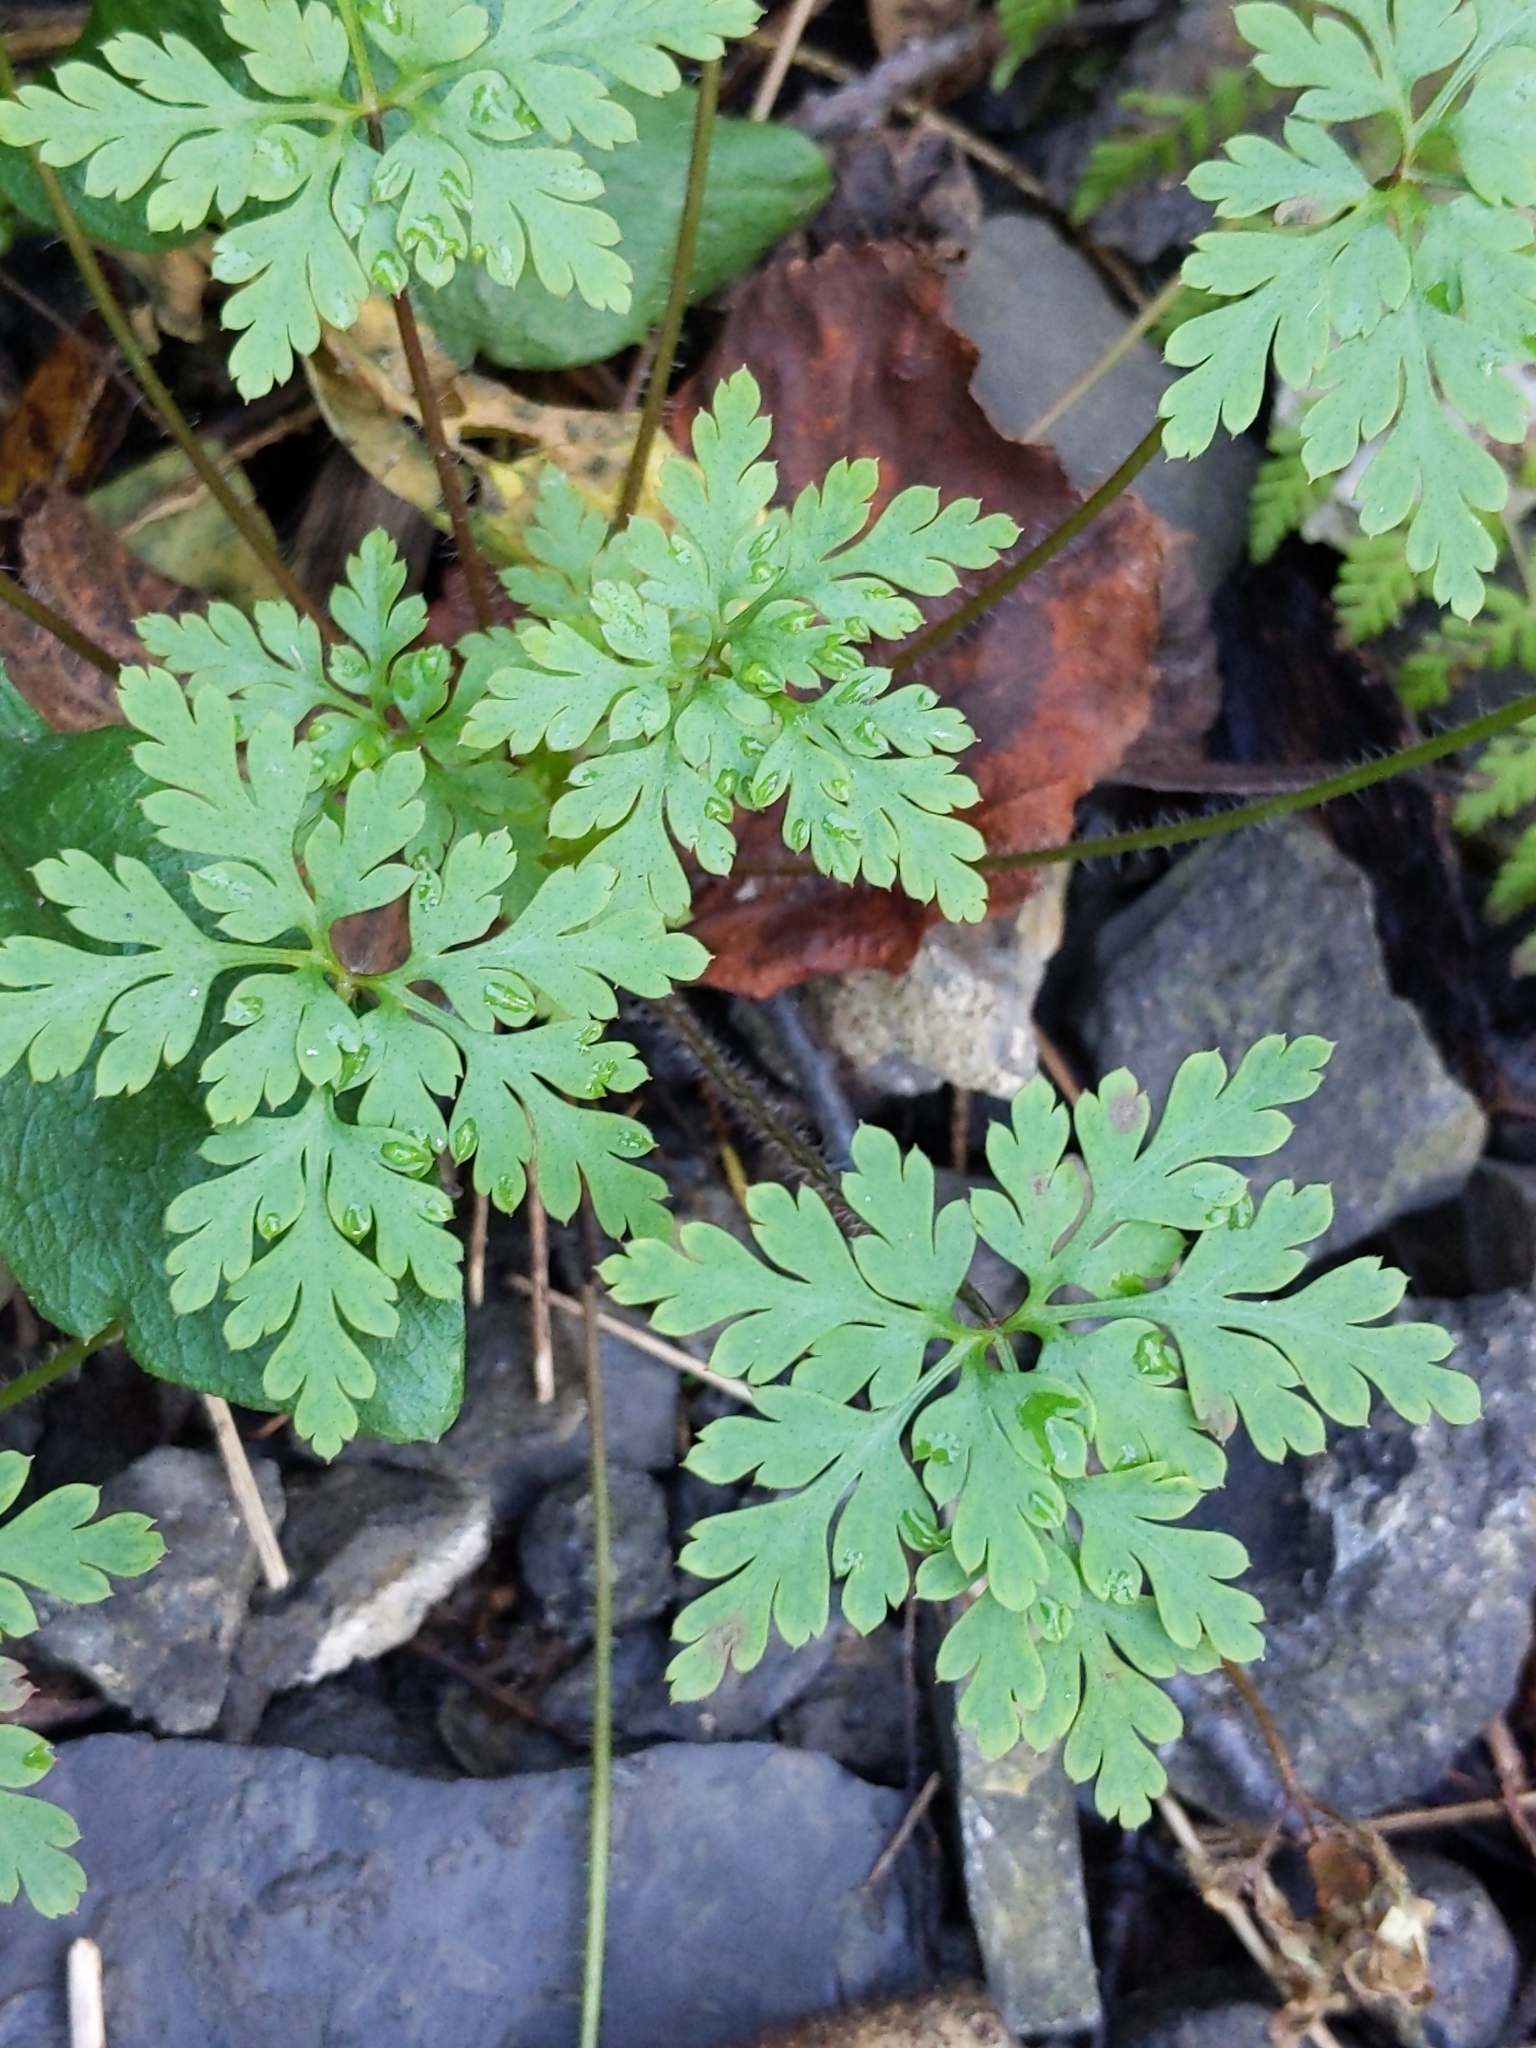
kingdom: Plantae
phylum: Tracheophyta
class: Magnoliopsida
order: Geraniales
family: Geraniaceae
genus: Geranium
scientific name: Geranium robertianum
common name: Herb-robert
